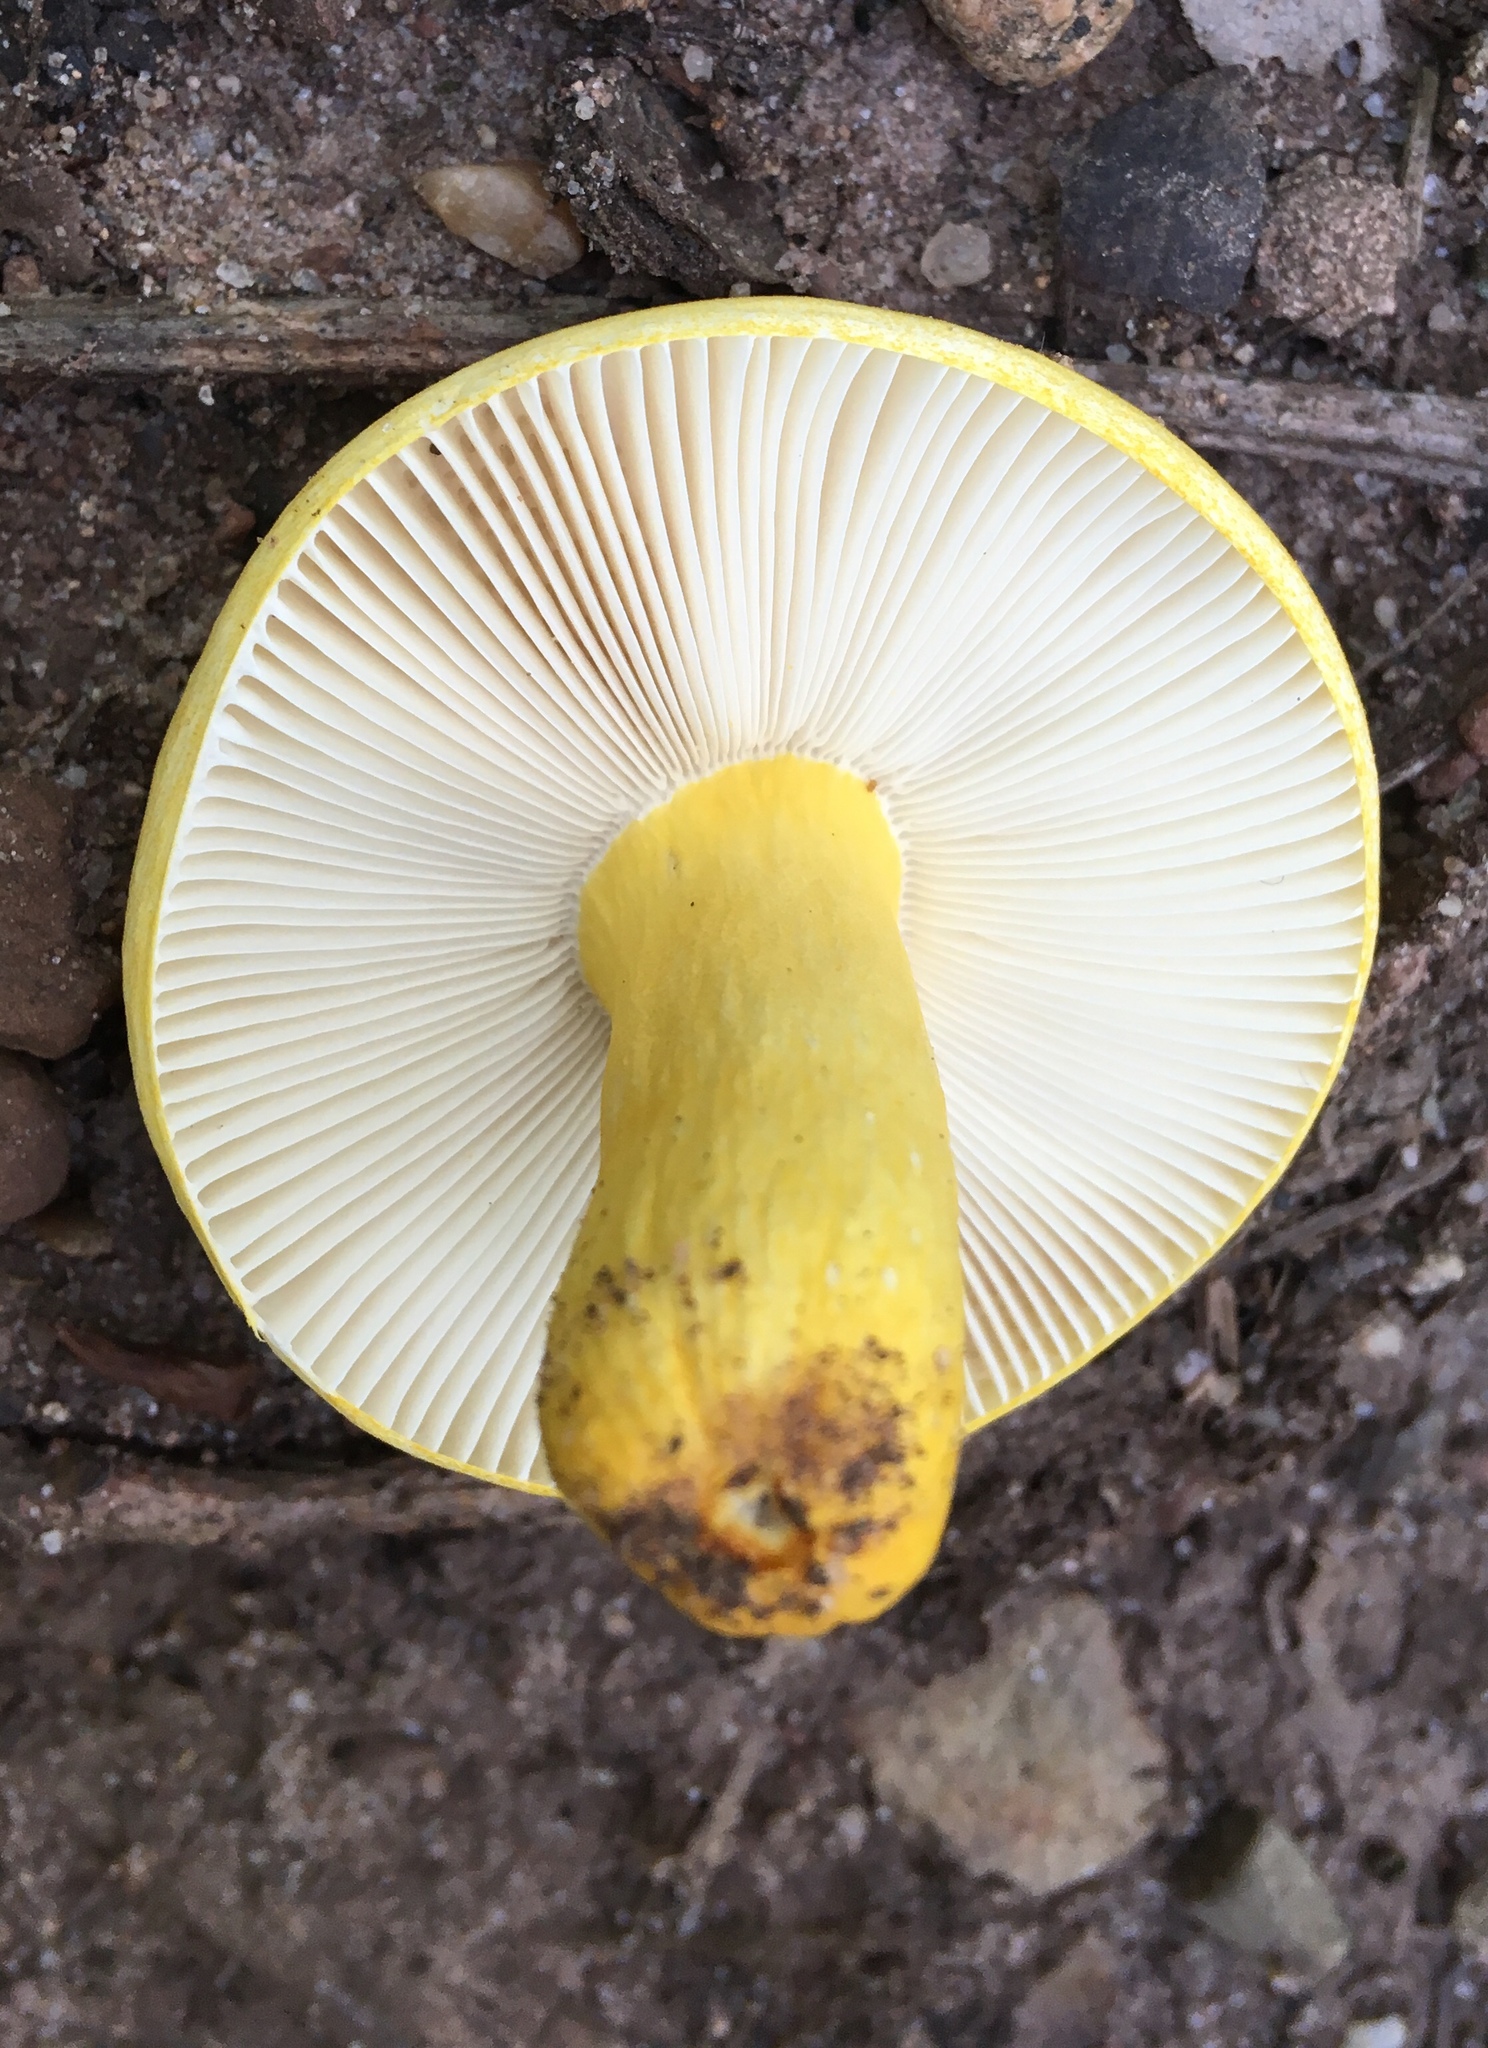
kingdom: Fungi
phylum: Basidiomycota
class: Agaricomycetes
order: Russulales
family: Russulaceae
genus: Russula
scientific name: Russula flavida
